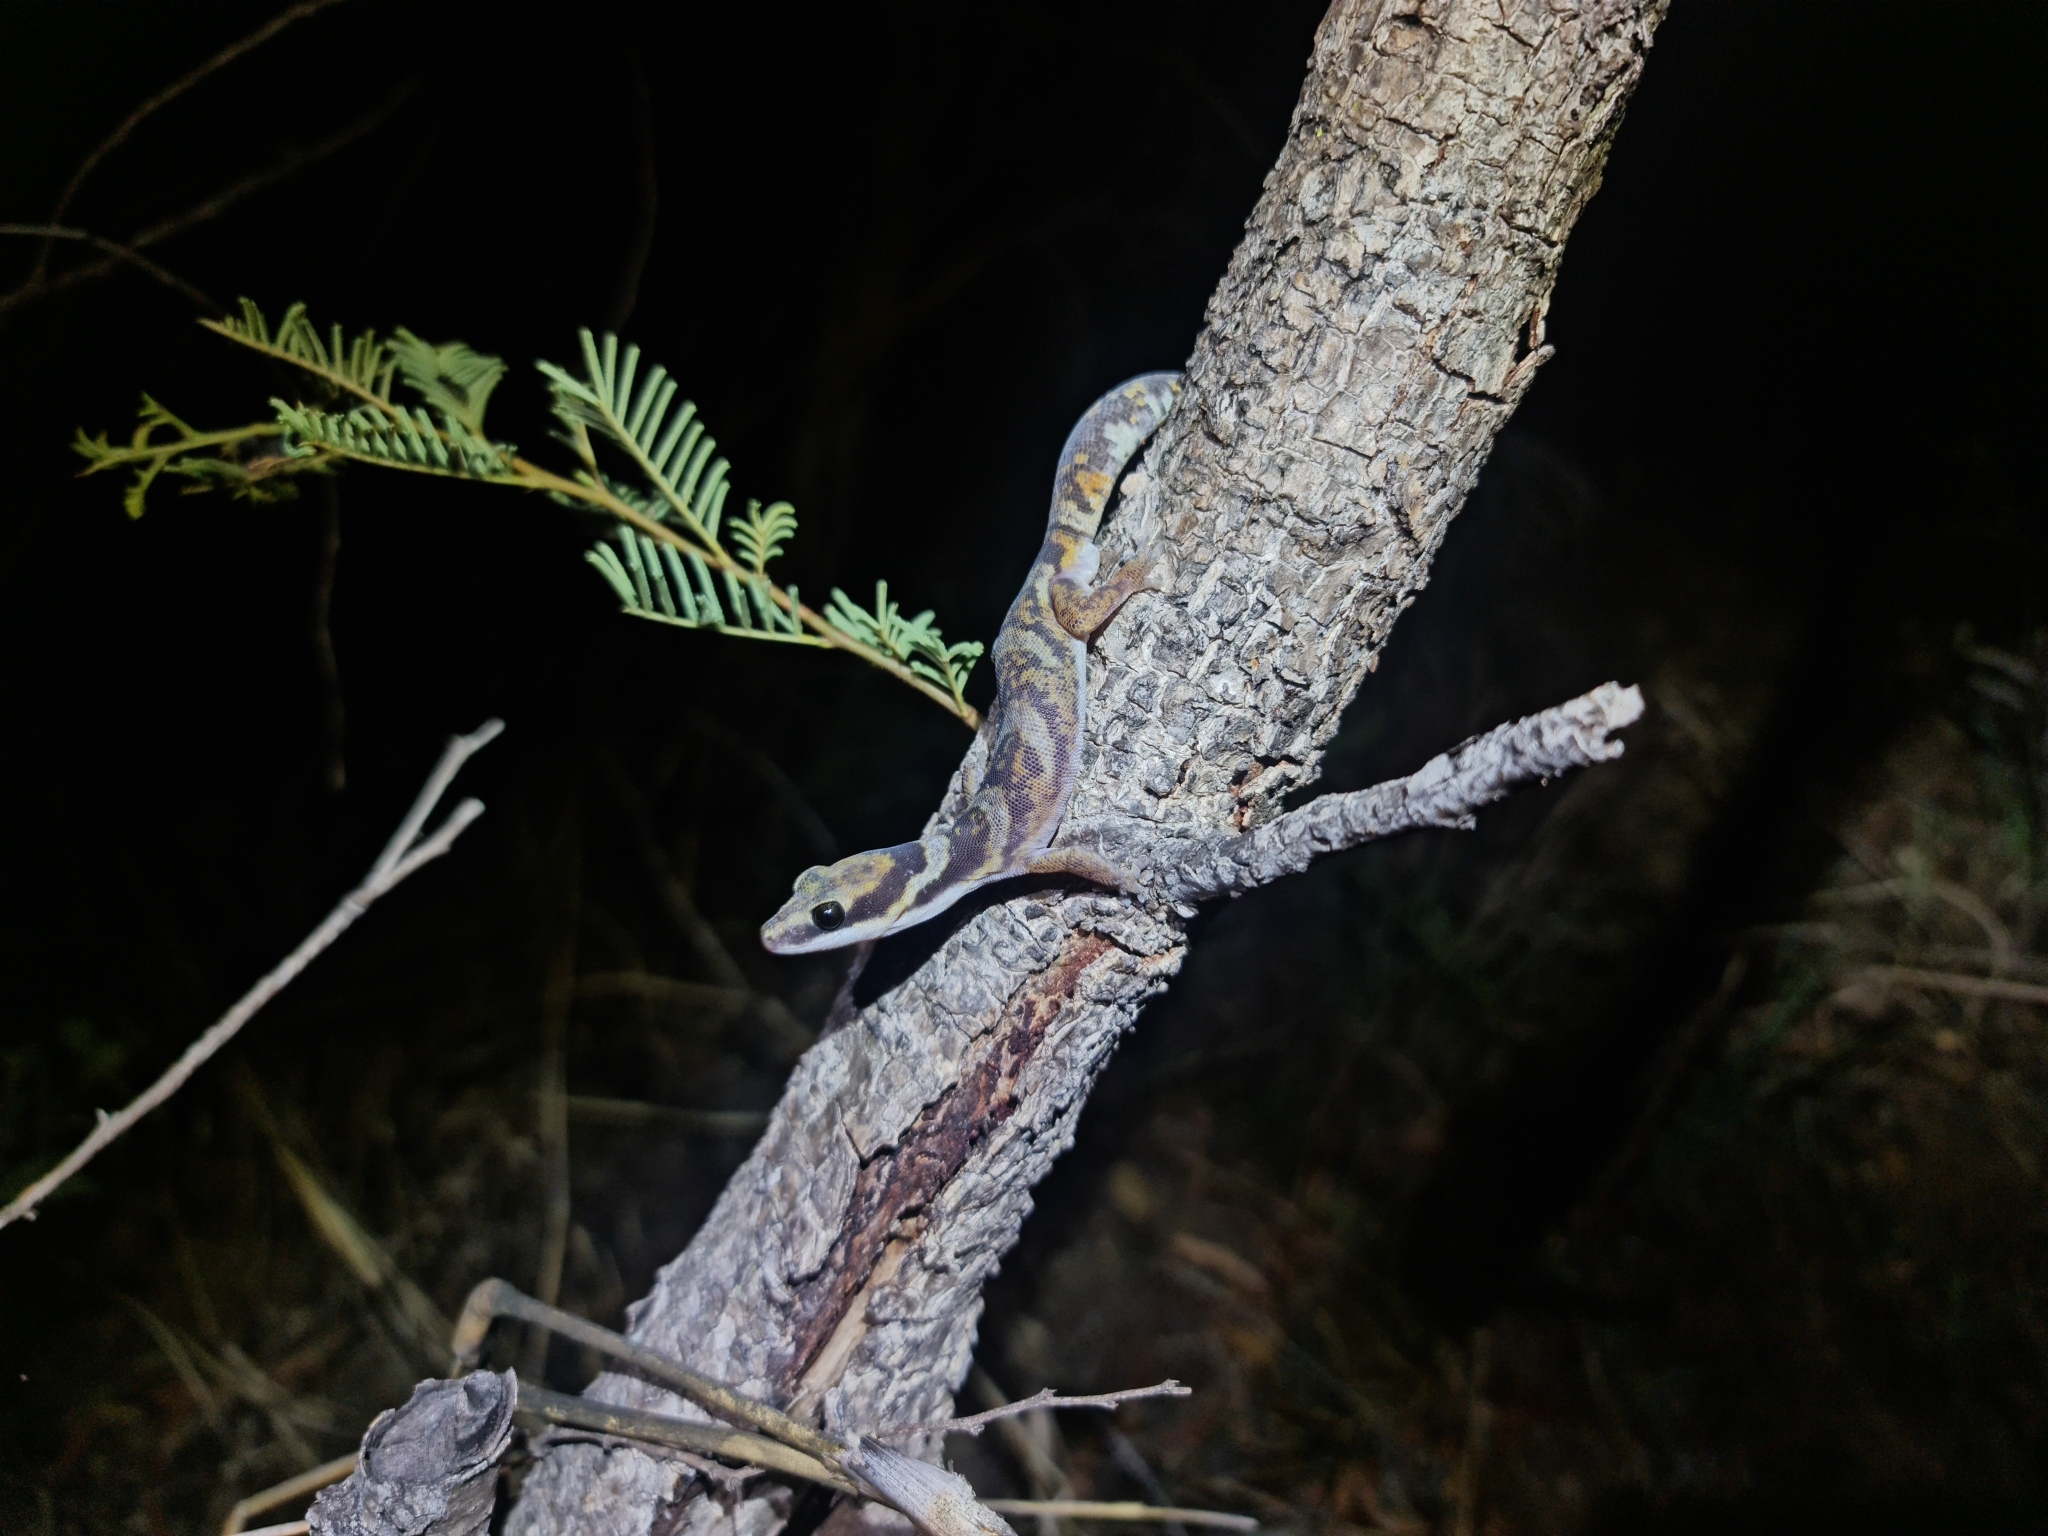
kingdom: Animalia
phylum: Chordata
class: Squamata
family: Diplodactylidae
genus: Oedura
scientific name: Oedura castelnaui
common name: Northern velvet gecko
